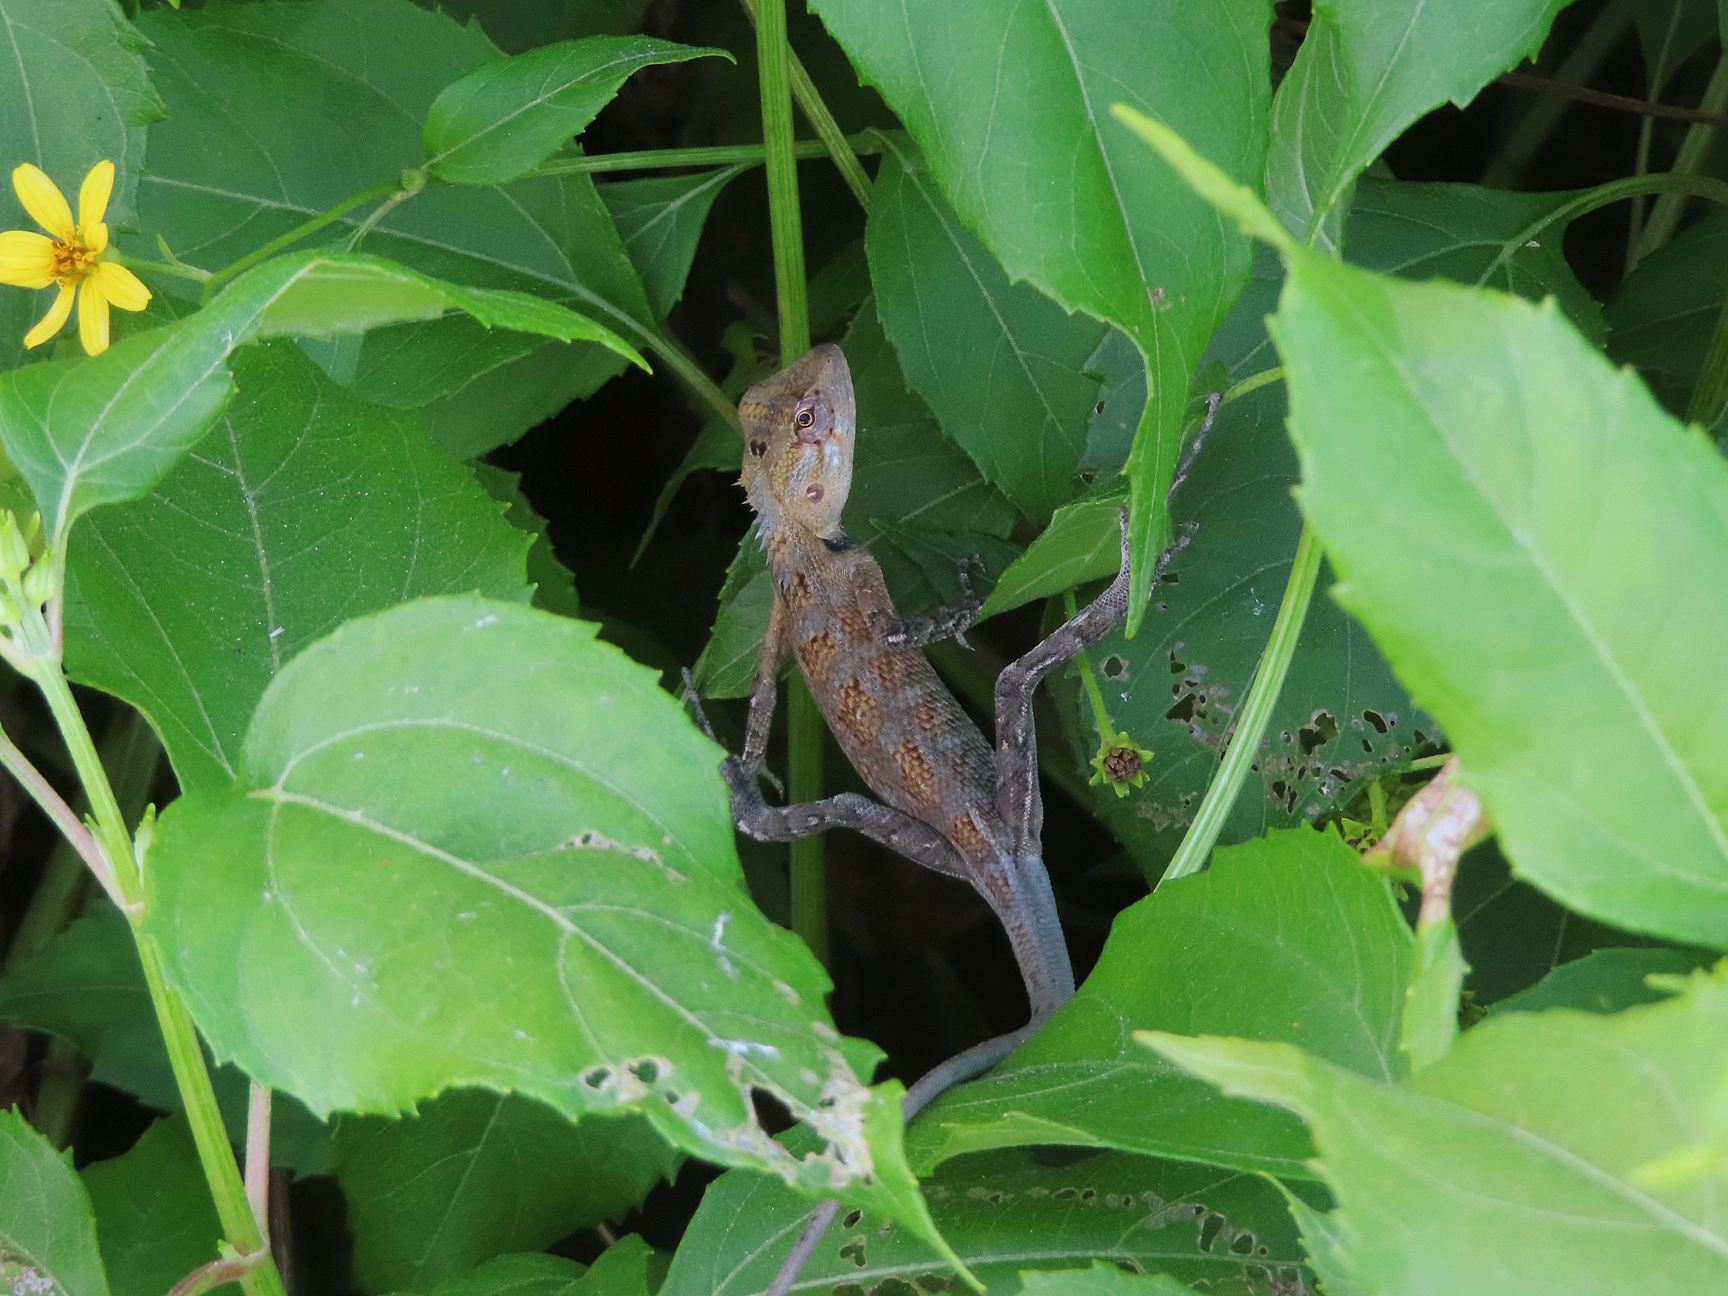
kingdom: Animalia
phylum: Chordata
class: Squamata
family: Agamidae
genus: Calotes
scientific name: Calotes versicolor
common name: Oriental garden lizard
